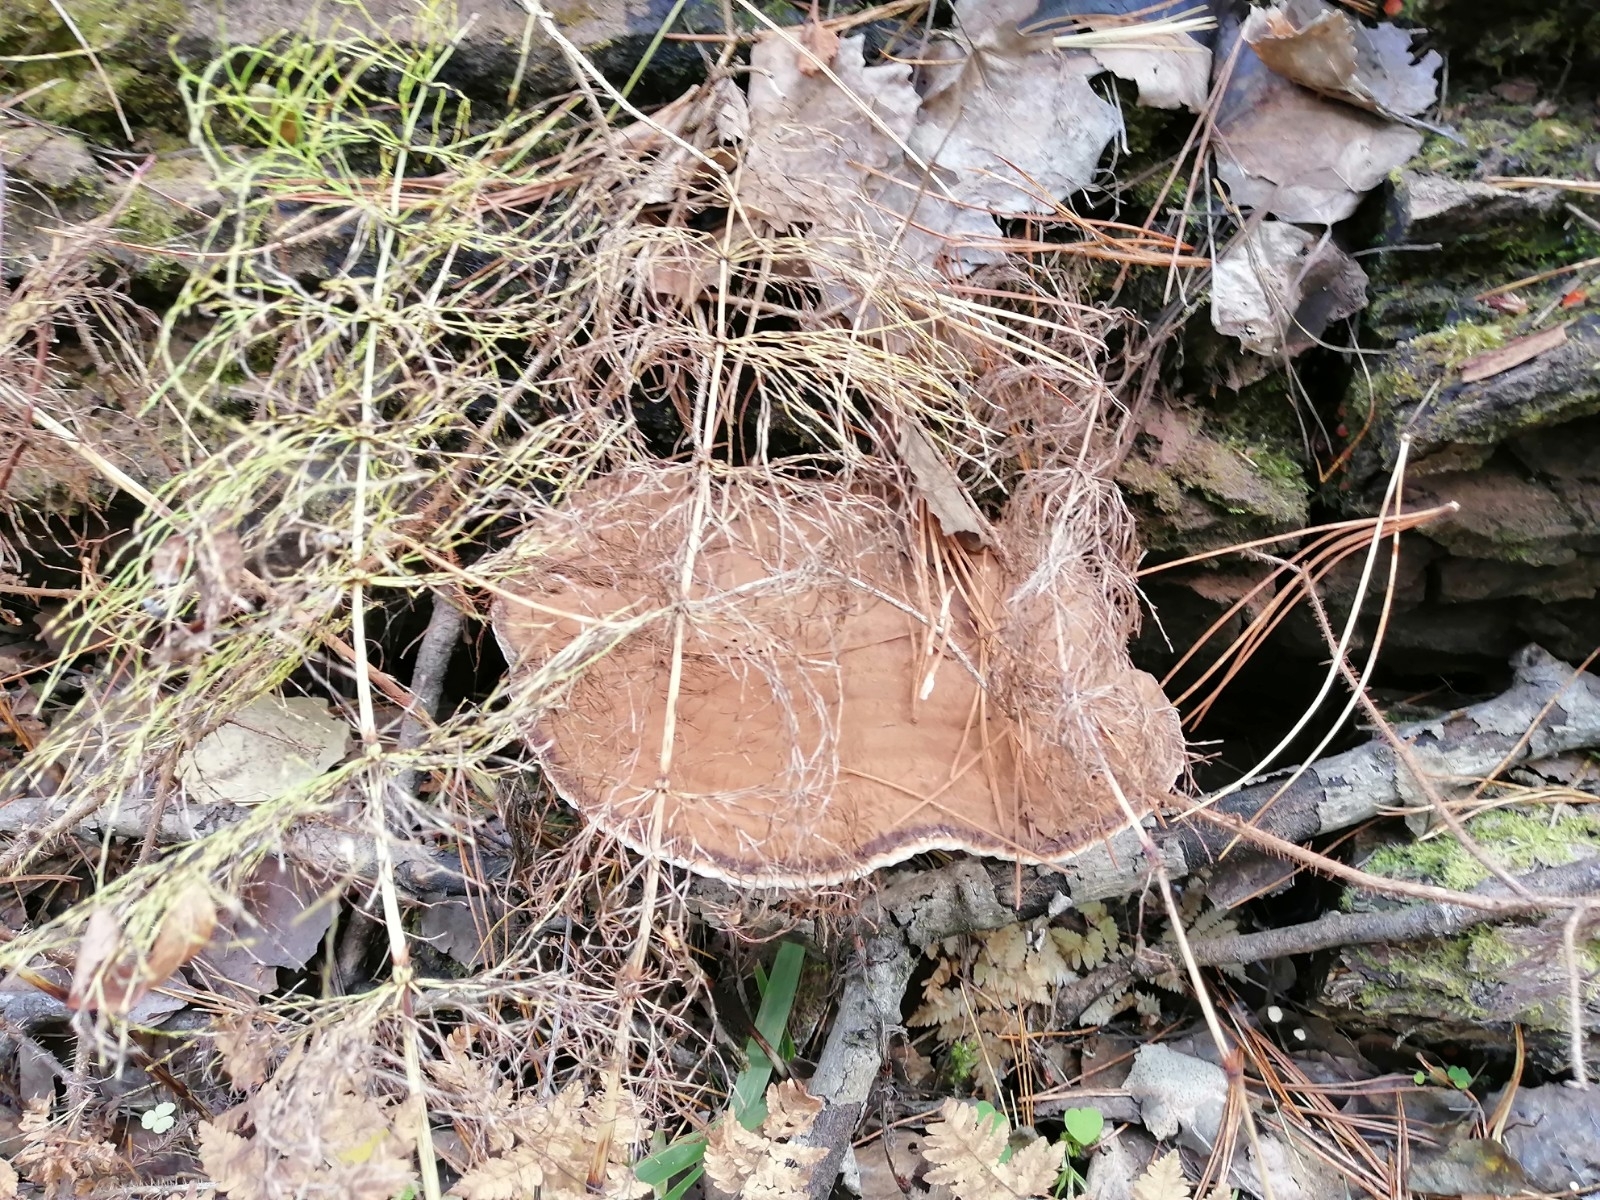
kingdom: Fungi
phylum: Basidiomycota
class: Agaricomycetes
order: Polyporales
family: Polyporaceae
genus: Ganoderma
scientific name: Ganoderma applanatum
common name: Artist's bracket
